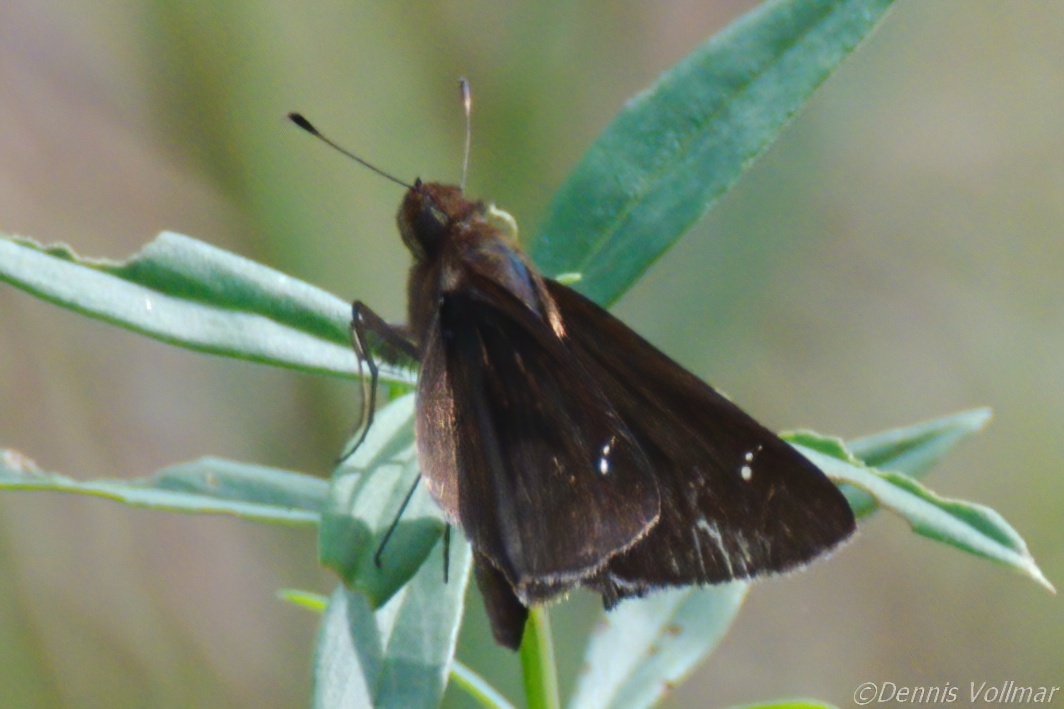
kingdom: Animalia
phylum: Arthropoda
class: Insecta
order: Lepidoptera
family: Hesperiidae
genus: Lerema
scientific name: Lerema accius
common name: Clouded skipper
